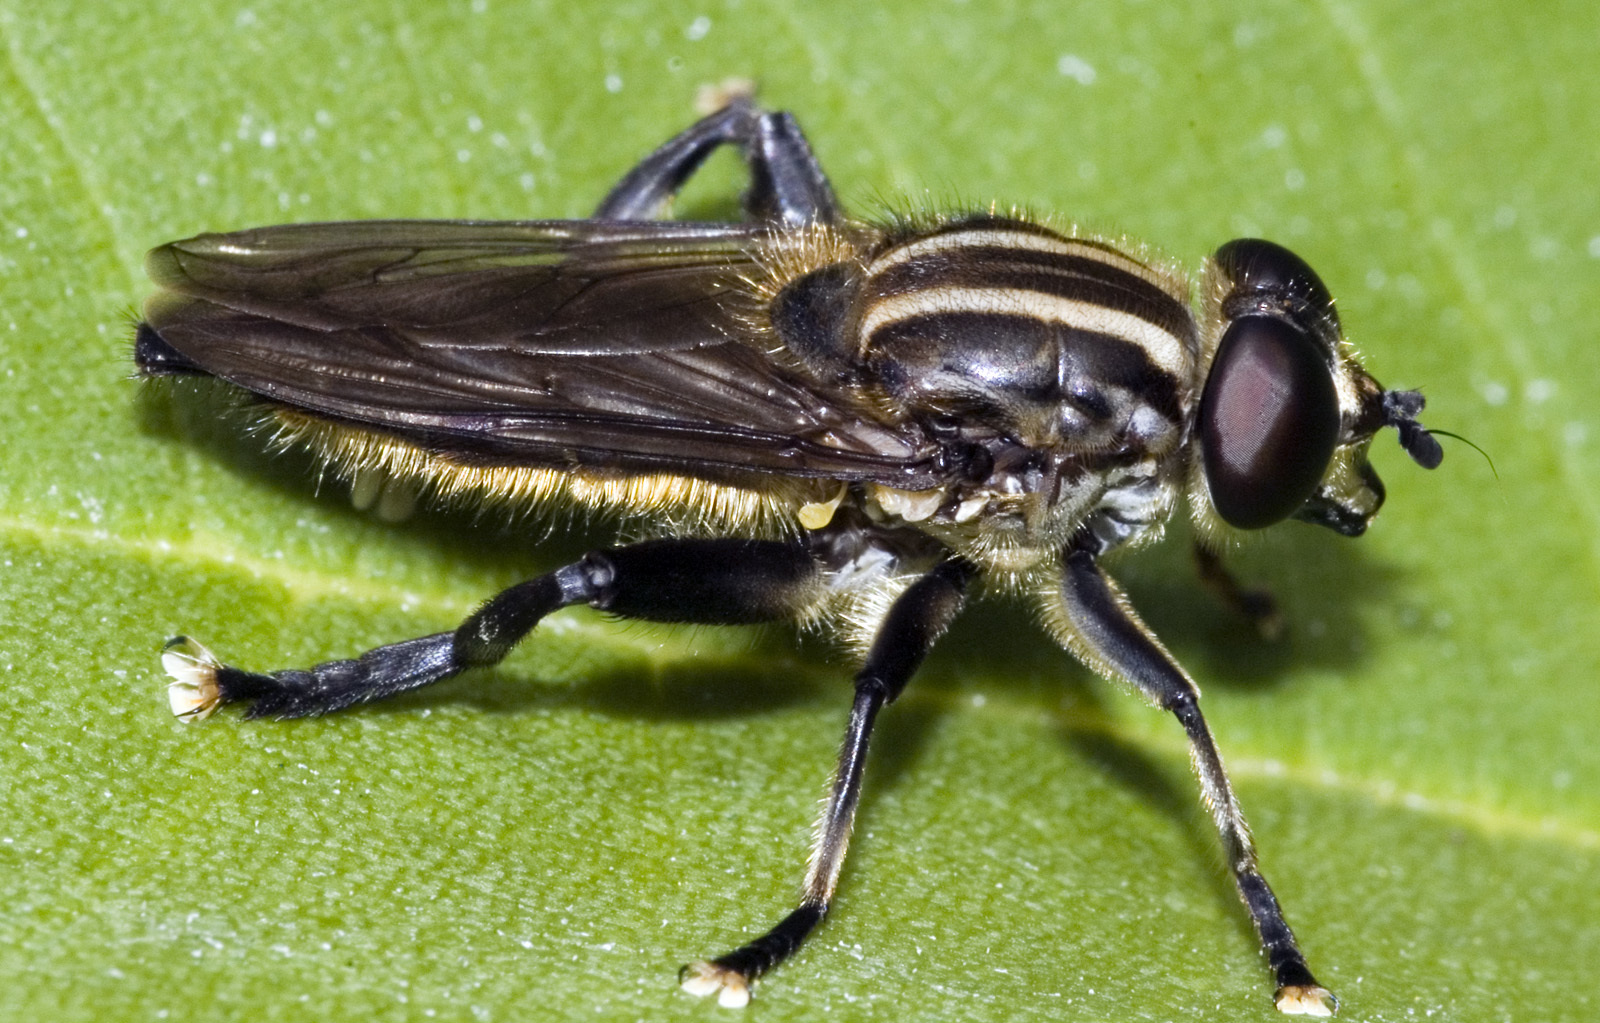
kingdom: Animalia
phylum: Arthropoda
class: Insecta
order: Diptera
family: Syrphidae
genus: Orthoprosopa
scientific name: Orthoprosopa bilineata
